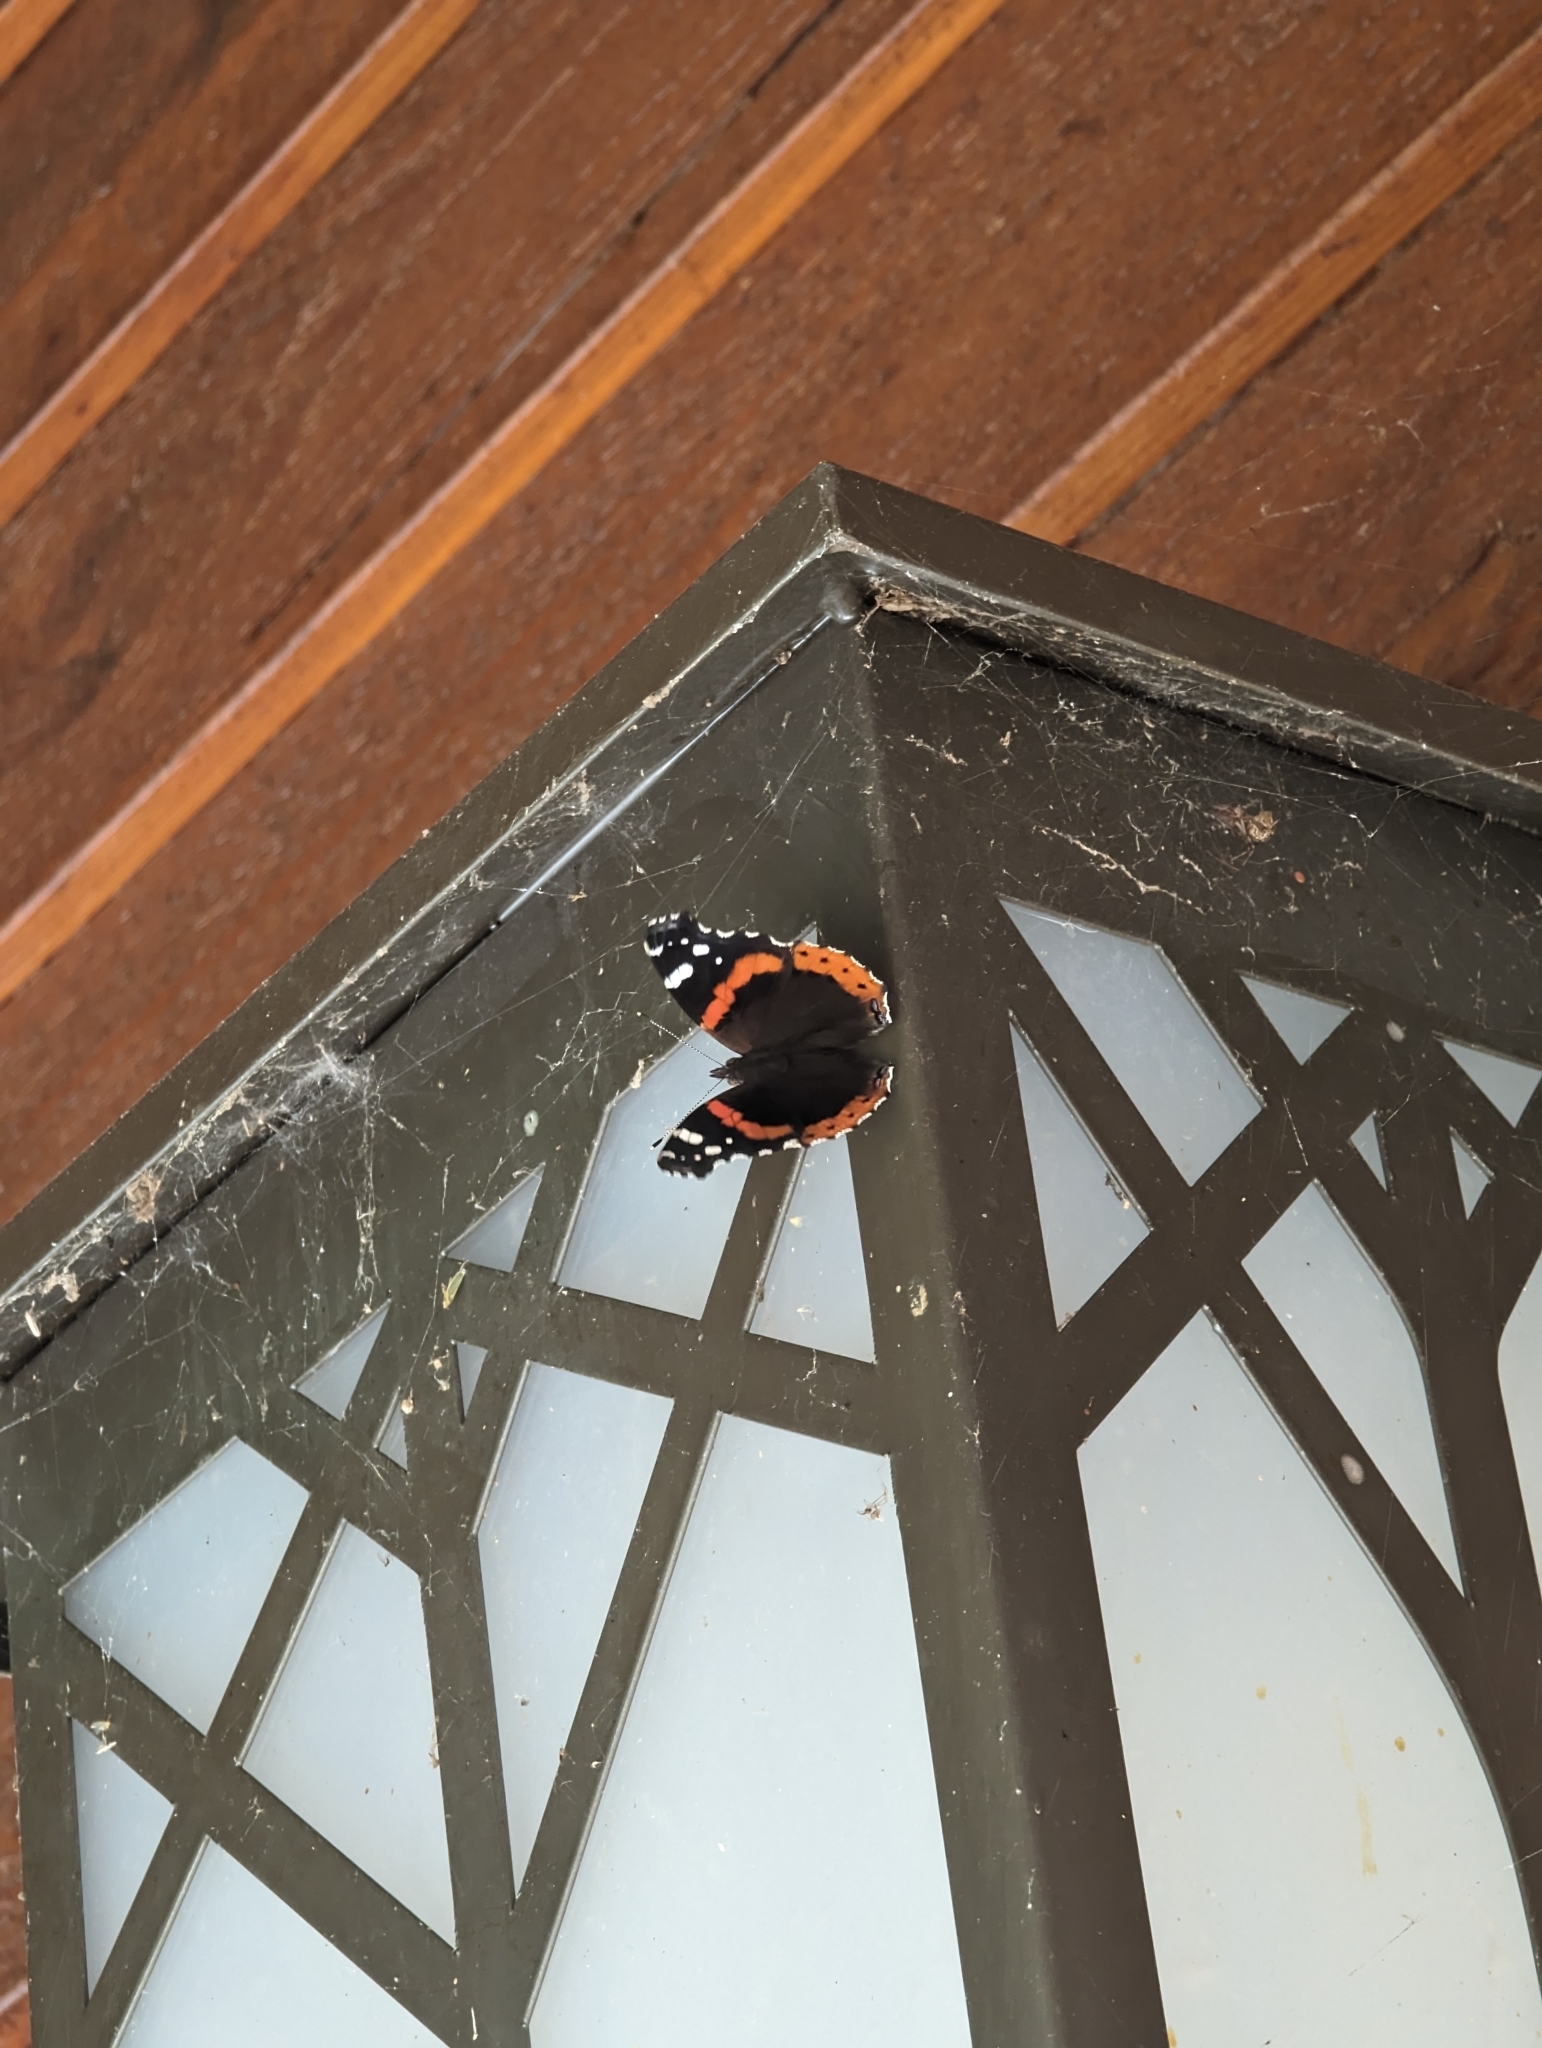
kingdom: Animalia
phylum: Arthropoda
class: Insecta
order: Lepidoptera
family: Nymphalidae
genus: Vanessa
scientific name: Vanessa atalanta
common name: Red admiral
